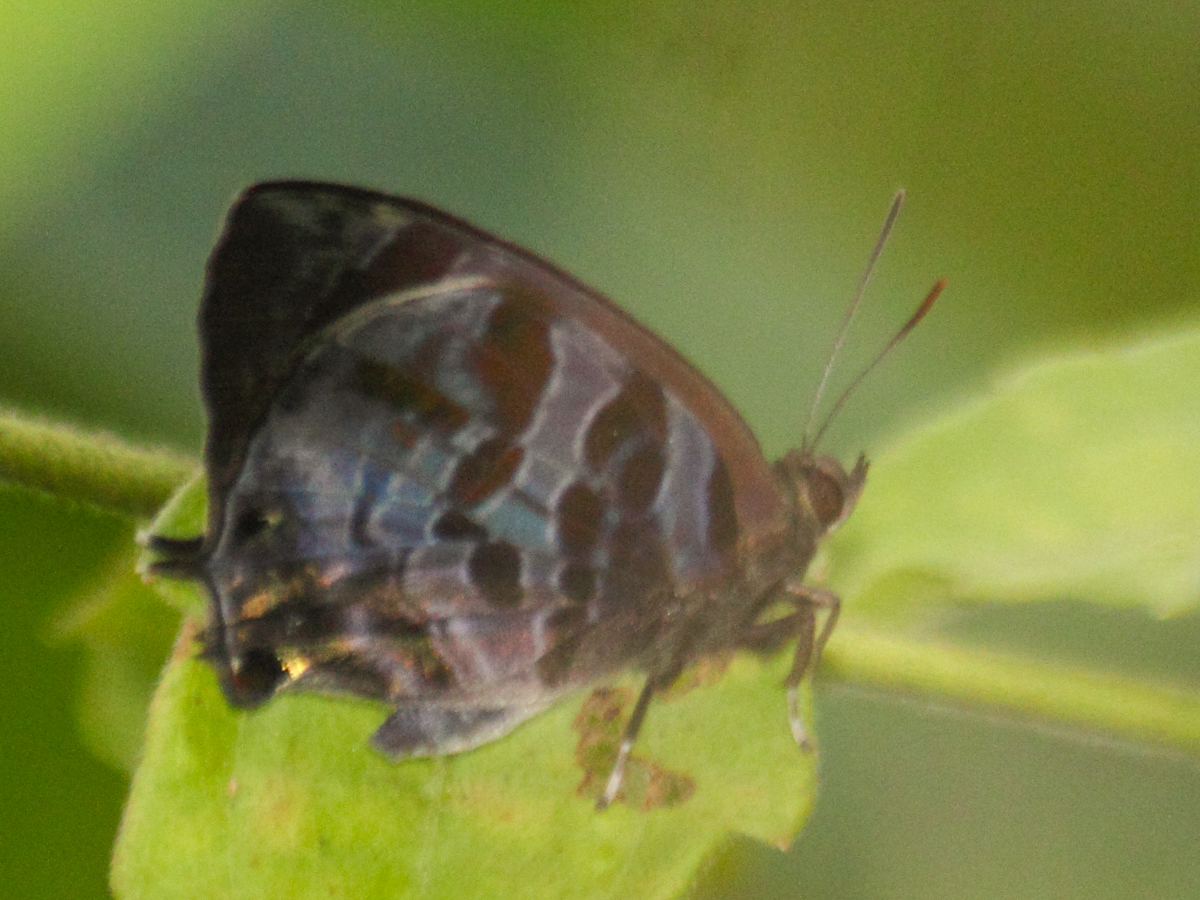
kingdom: Animalia
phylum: Arthropoda
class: Insecta
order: Lepidoptera
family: Lycaenidae
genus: Flos
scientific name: Flos
